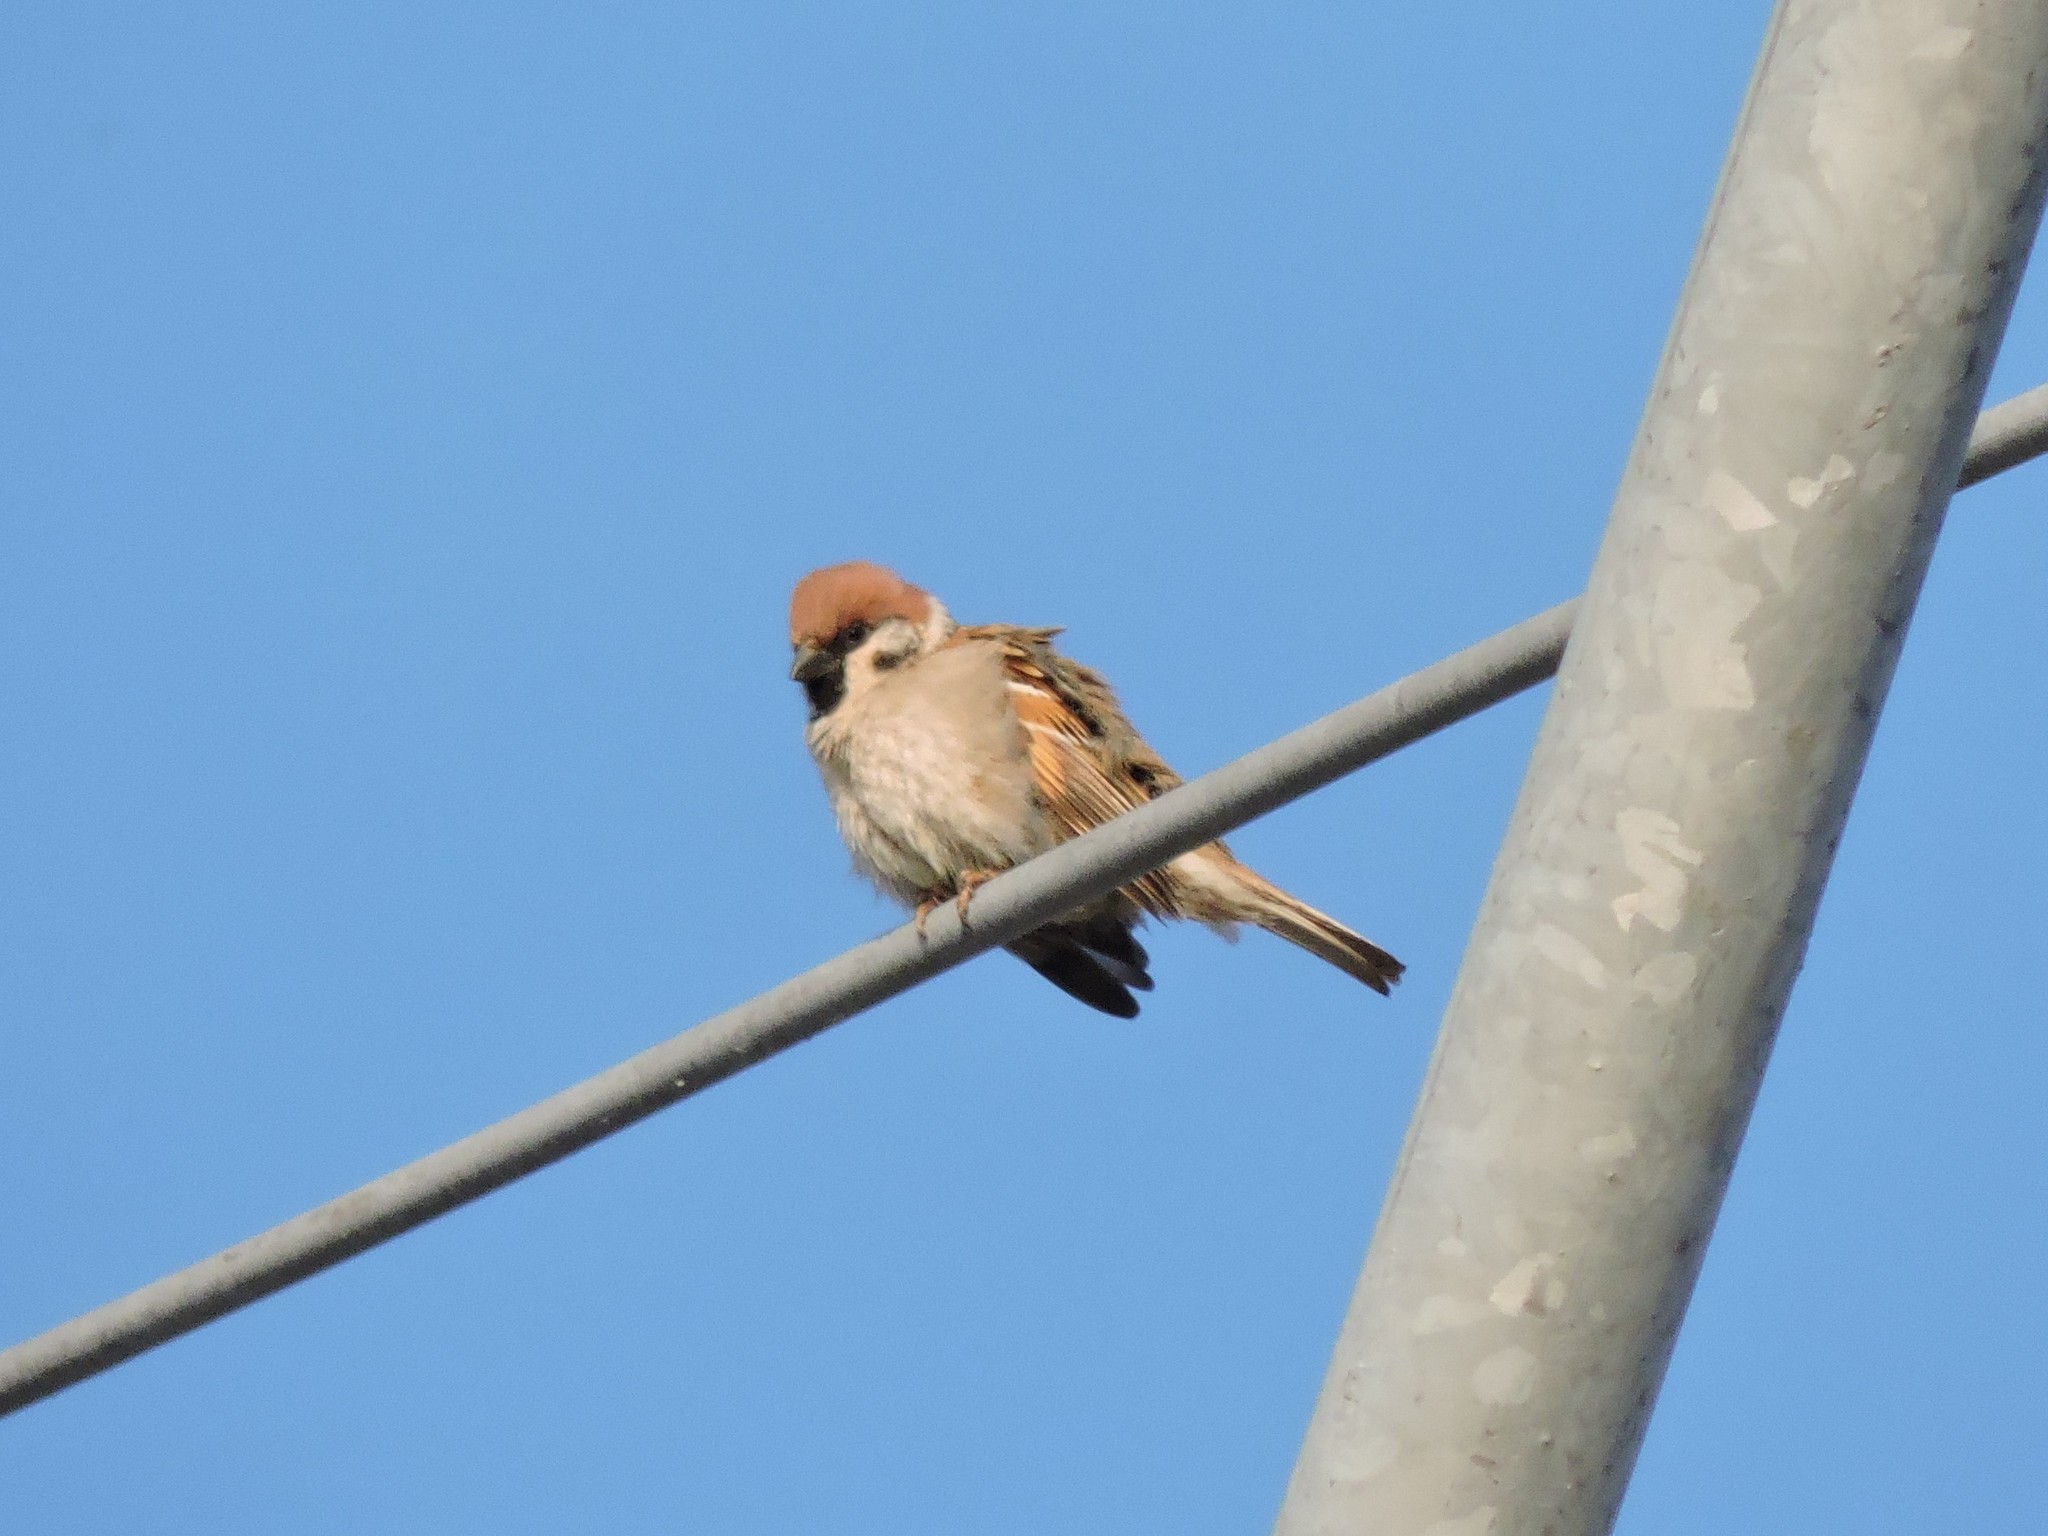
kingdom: Animalia
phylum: Chordata
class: Aves
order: Passeriformes
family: Passeridae
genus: Passer
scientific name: Passer montanus
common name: Eurasian tree sparrow
